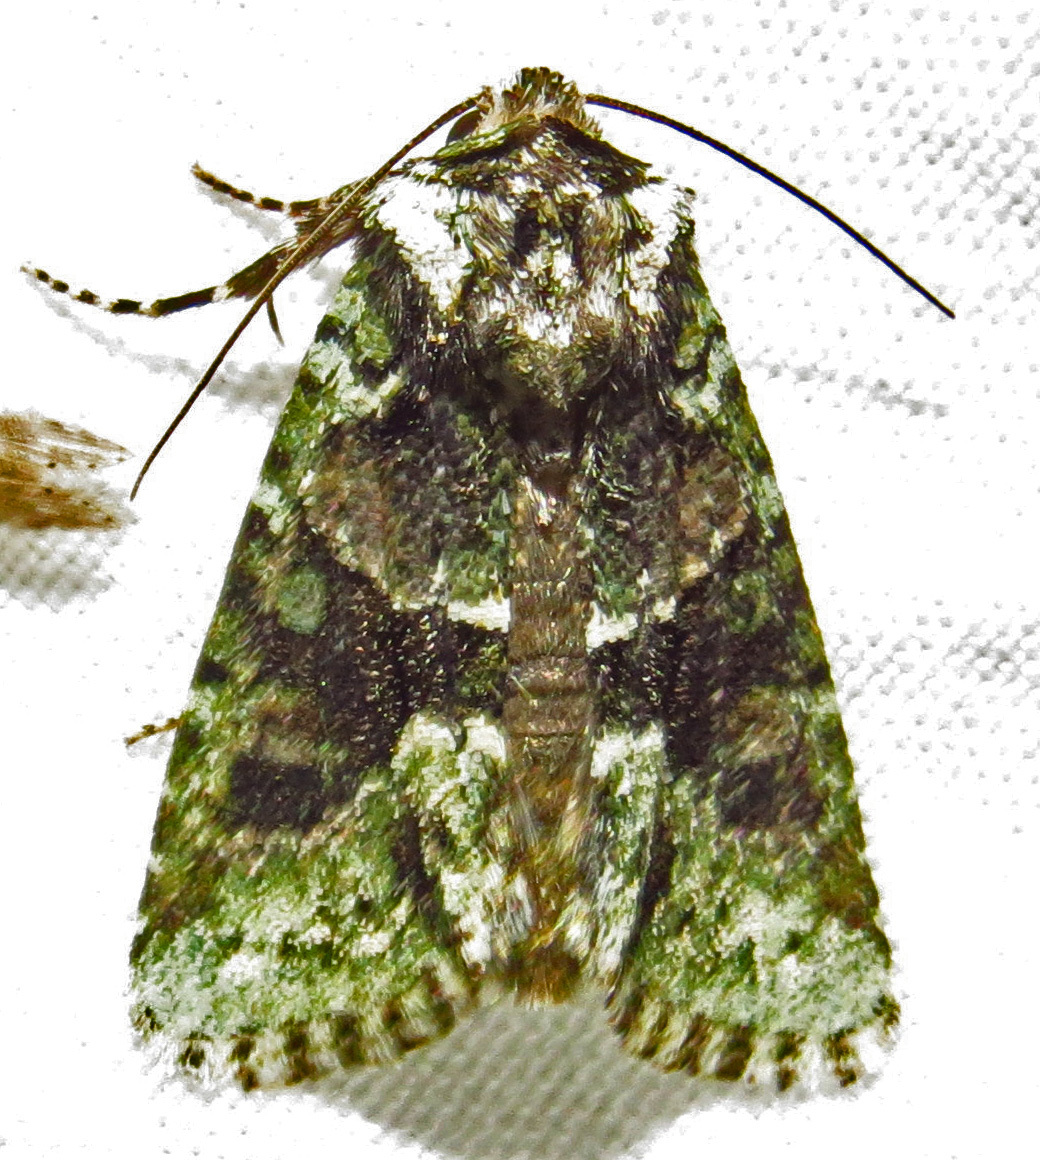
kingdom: Animalia
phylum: Arthropoda
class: Insecta
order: Lepidoptera
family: Noctuidae
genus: Lacinipolia
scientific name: Lacinipolia explicata
